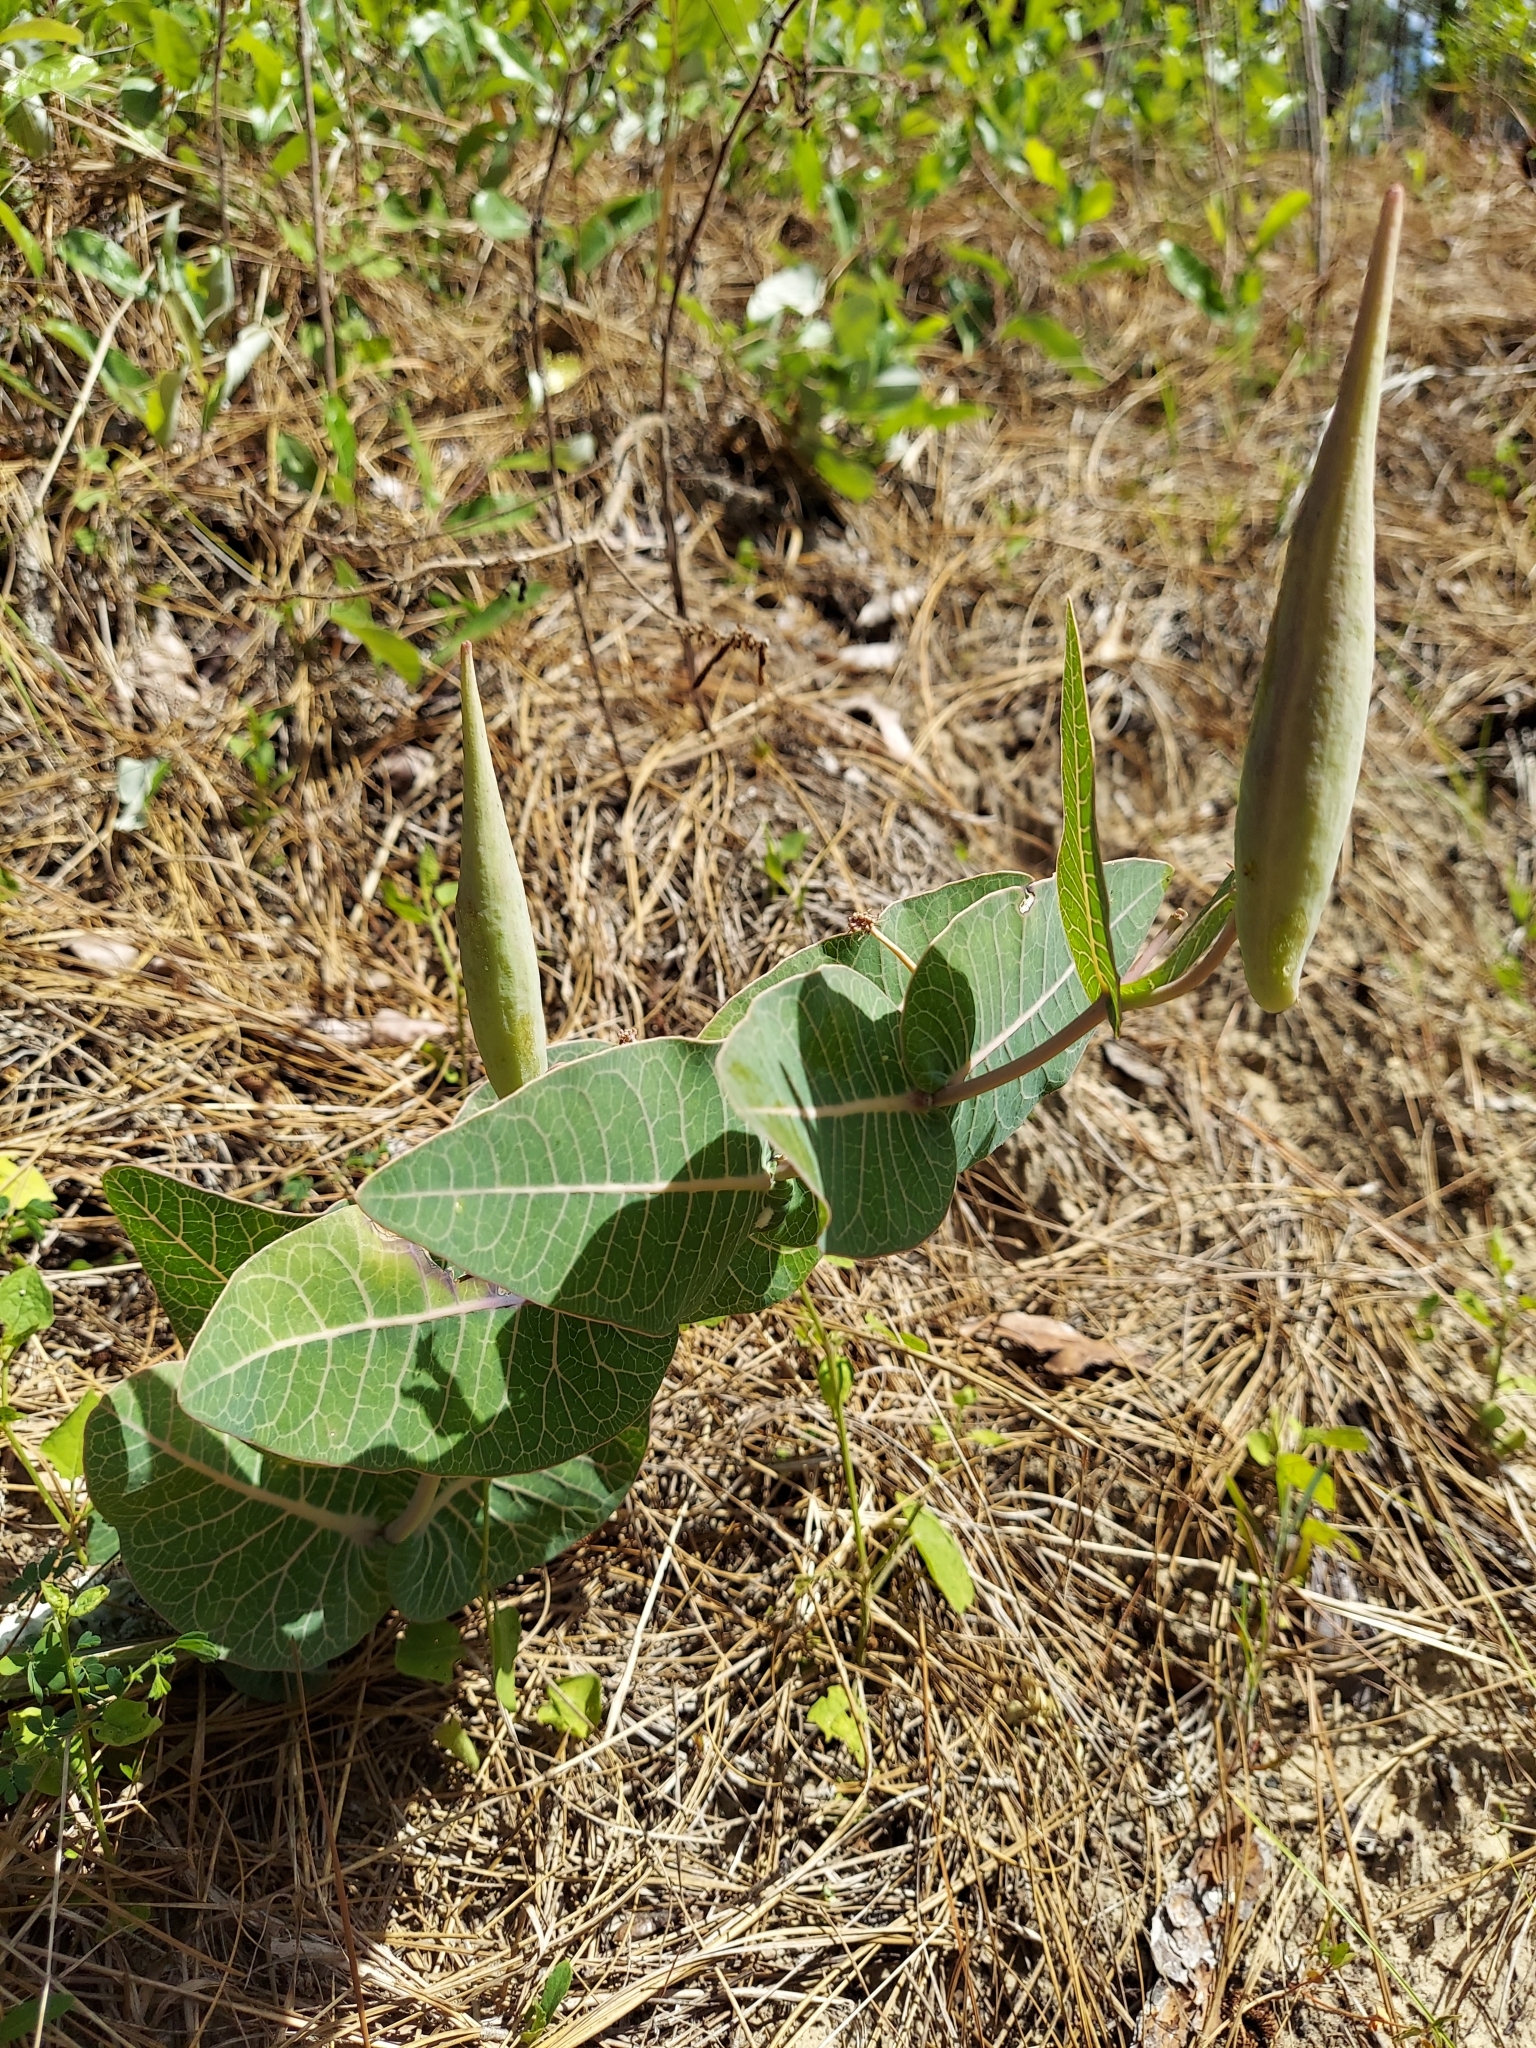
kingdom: Plantae
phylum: Tracheophyta
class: Magnoliopsida
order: Gentianales
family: Apocynaceae
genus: Asclepias
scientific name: Asclepias humistrata
